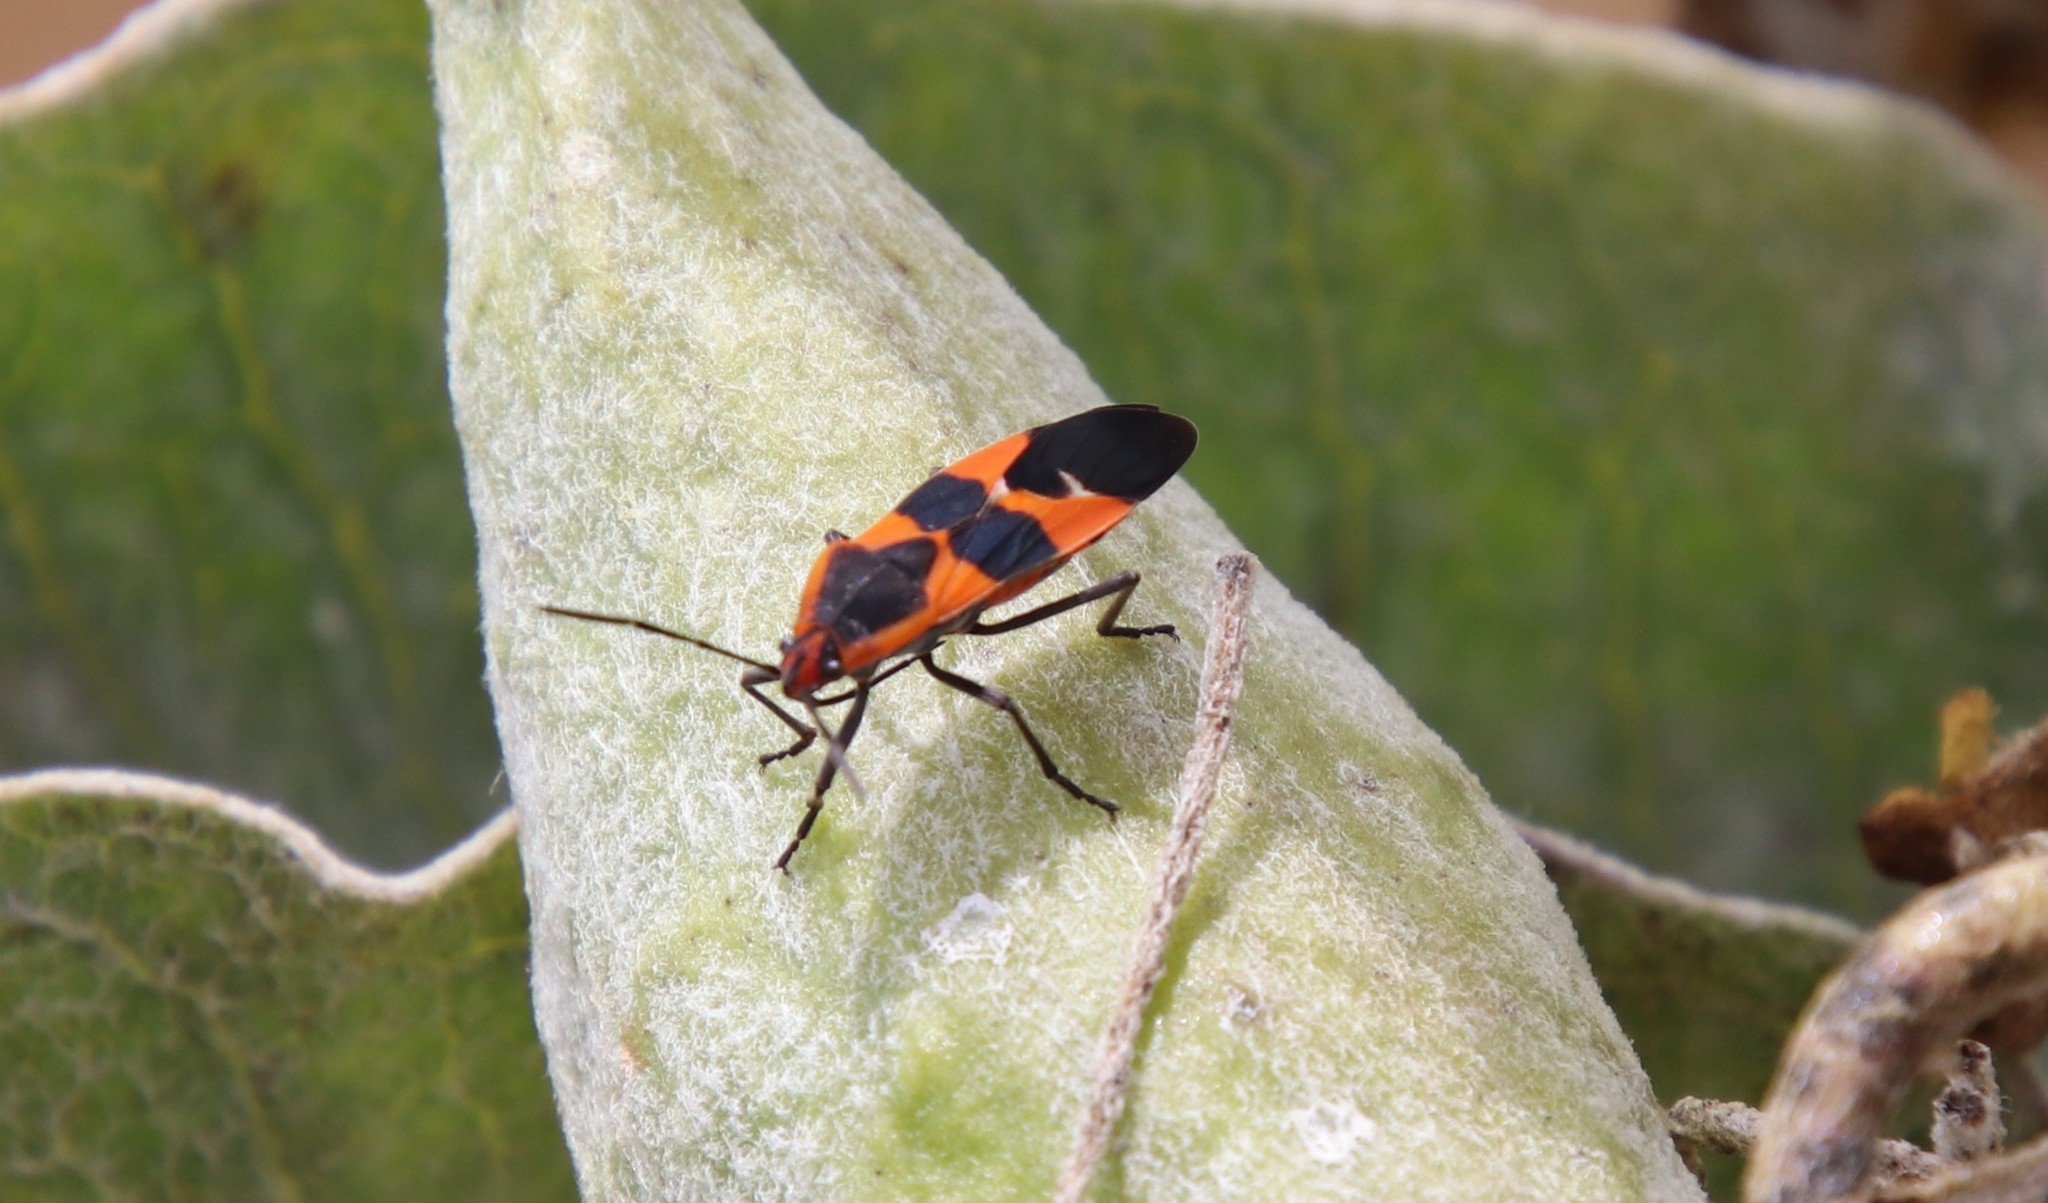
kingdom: Animalia
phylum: Arthropoda
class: Insecta
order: Hemiptera
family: Lygaeidae
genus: Oncopeltus
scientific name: Oncopeltus fasciatus
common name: Large milkweed bug
